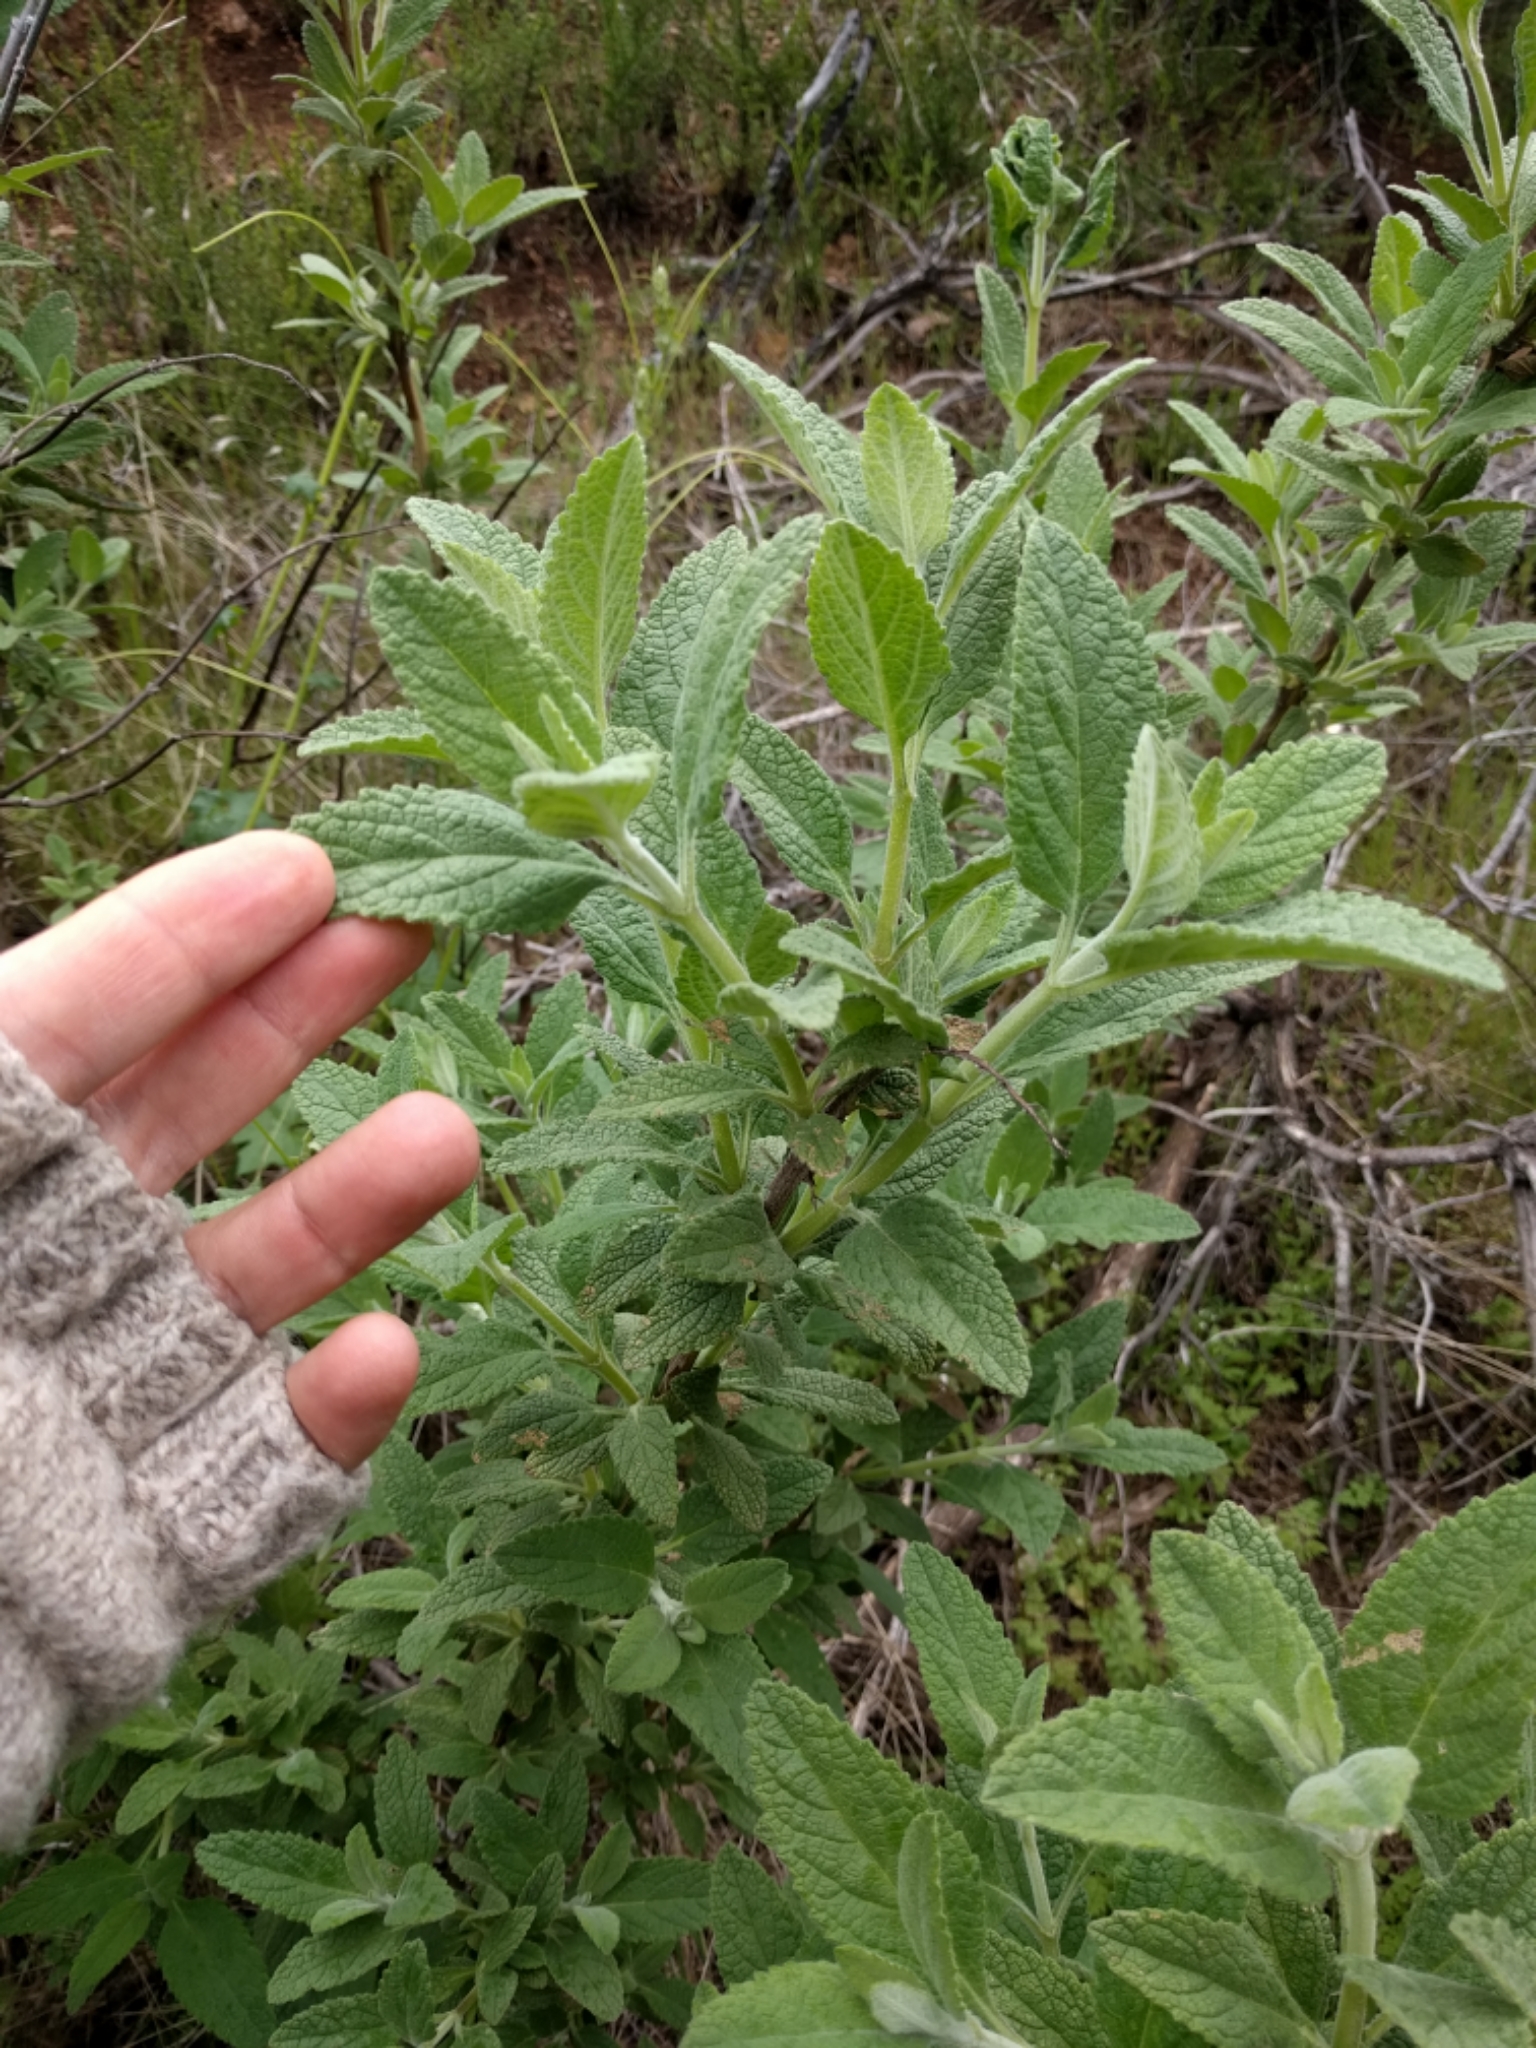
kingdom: Plantae
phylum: Tracheophyta
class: Magnoliopsida
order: Lamiales
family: Lamiaceae
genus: Lepechinia
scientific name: Lepechinia calycina
